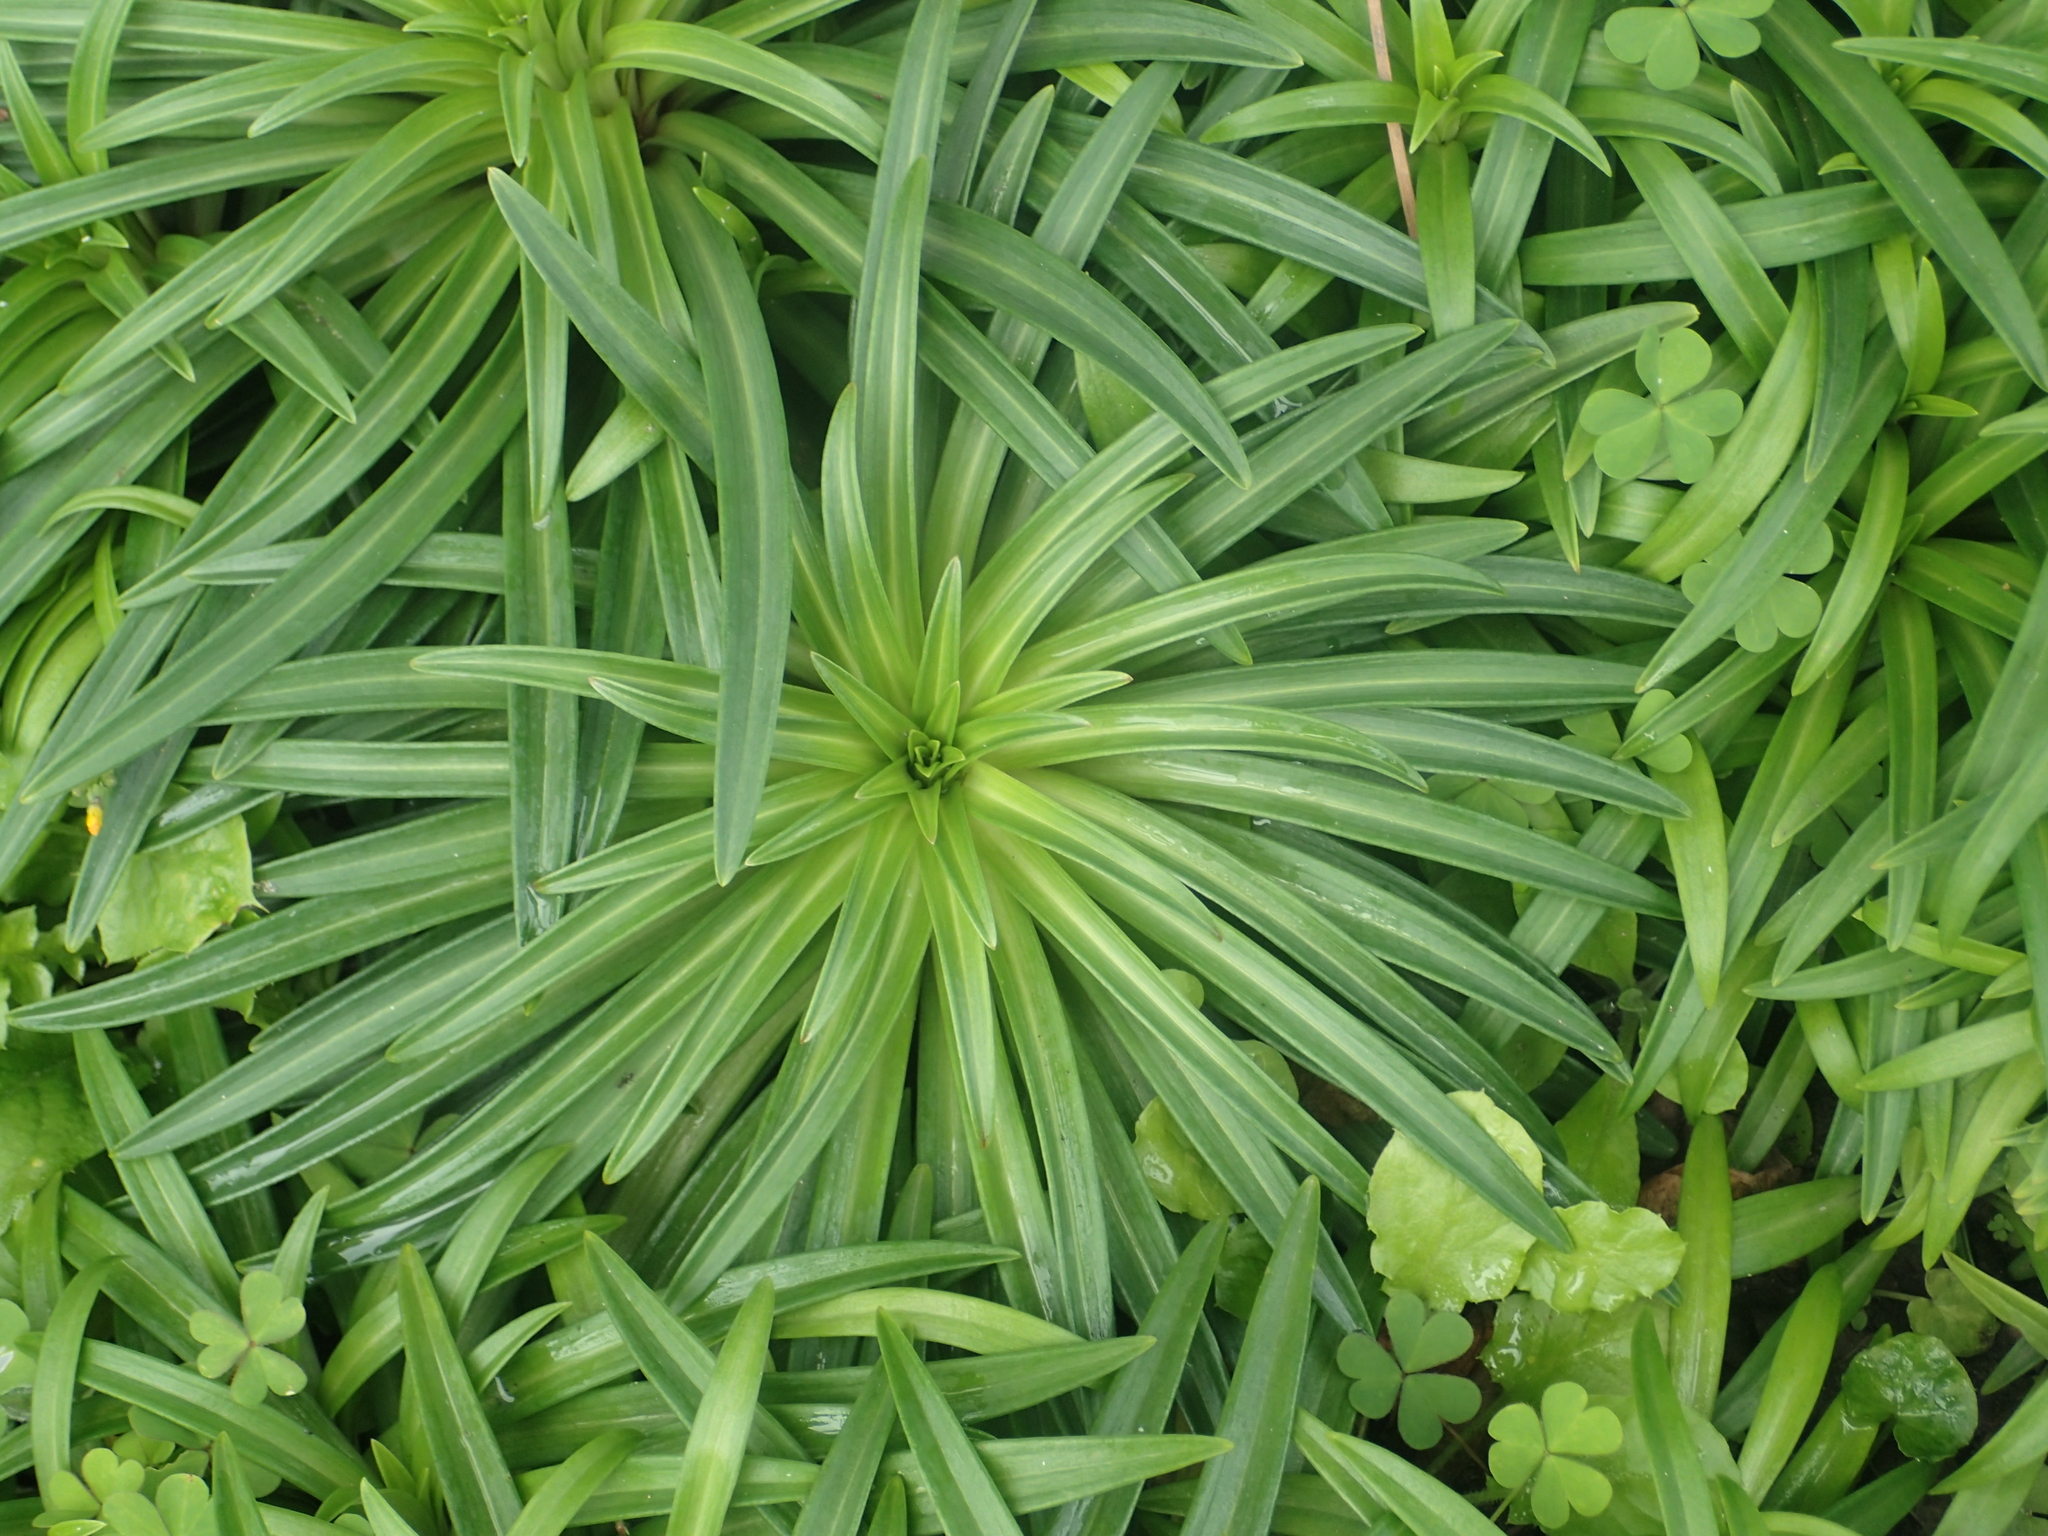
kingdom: Plantae
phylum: Tracheophyta
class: Liliopsida
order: Liliales
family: Liliaceae
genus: Lilium
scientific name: Lilium formosanum
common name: Formosa lily
